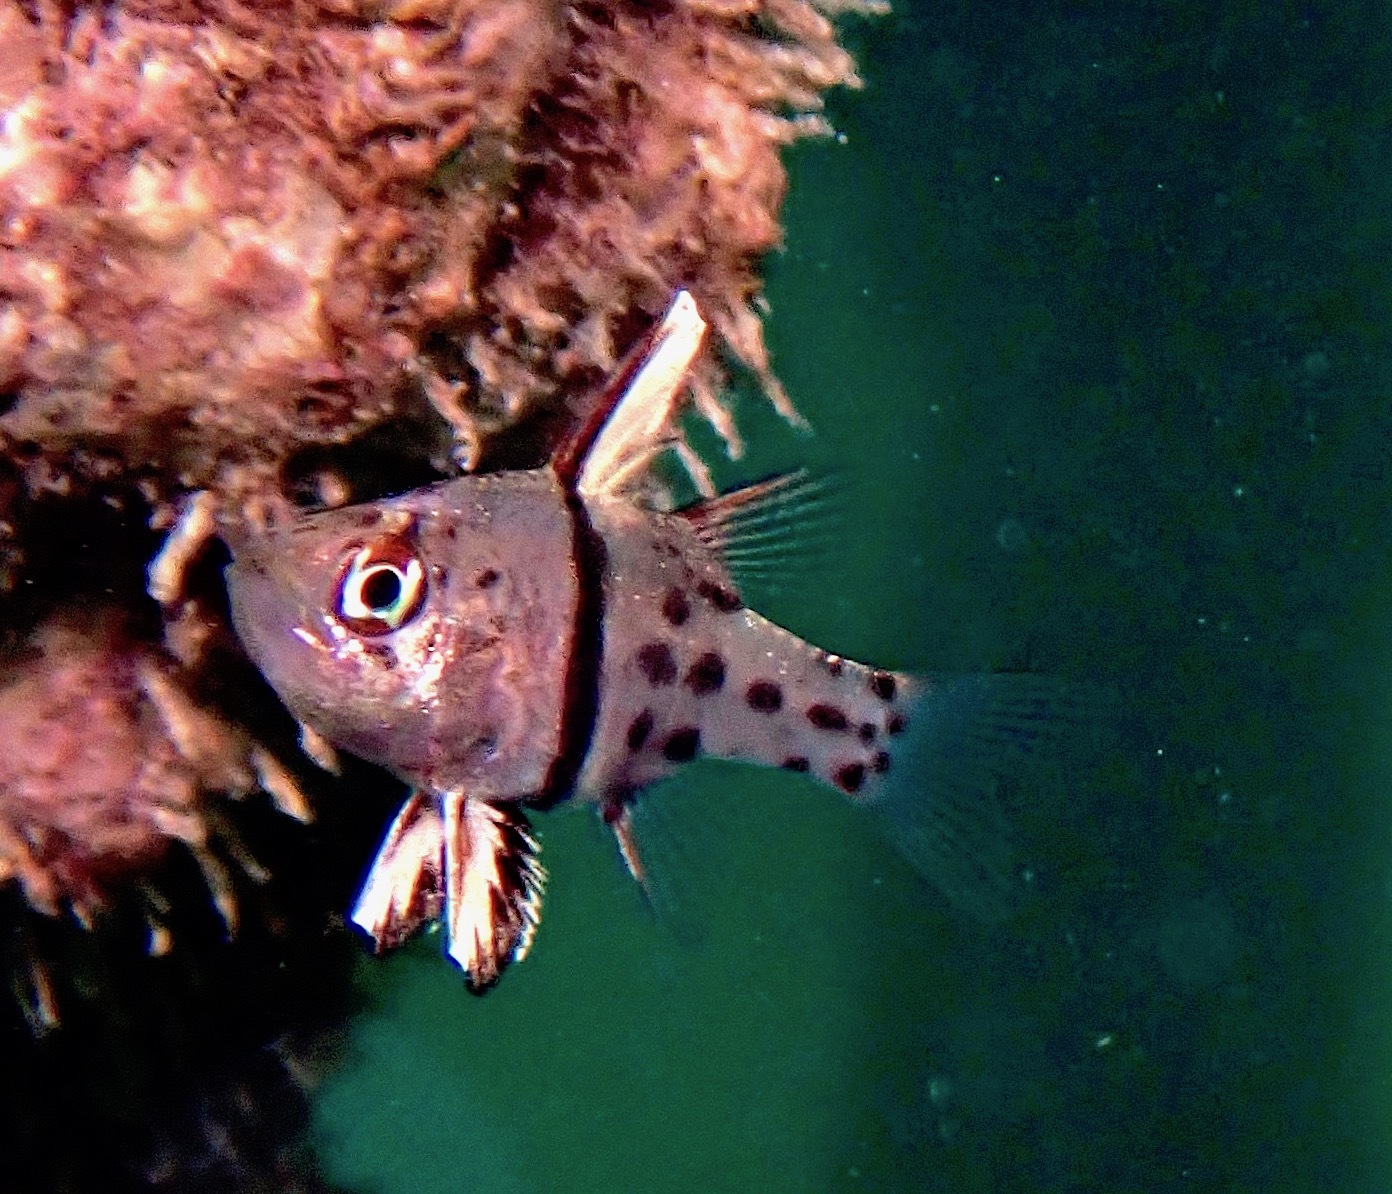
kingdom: Animalia
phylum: Chordata
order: Perciformes
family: Apogonidae
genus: Sphaeramia
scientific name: Sphaeramia orbicularis
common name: Polka-dot cardinalfish
